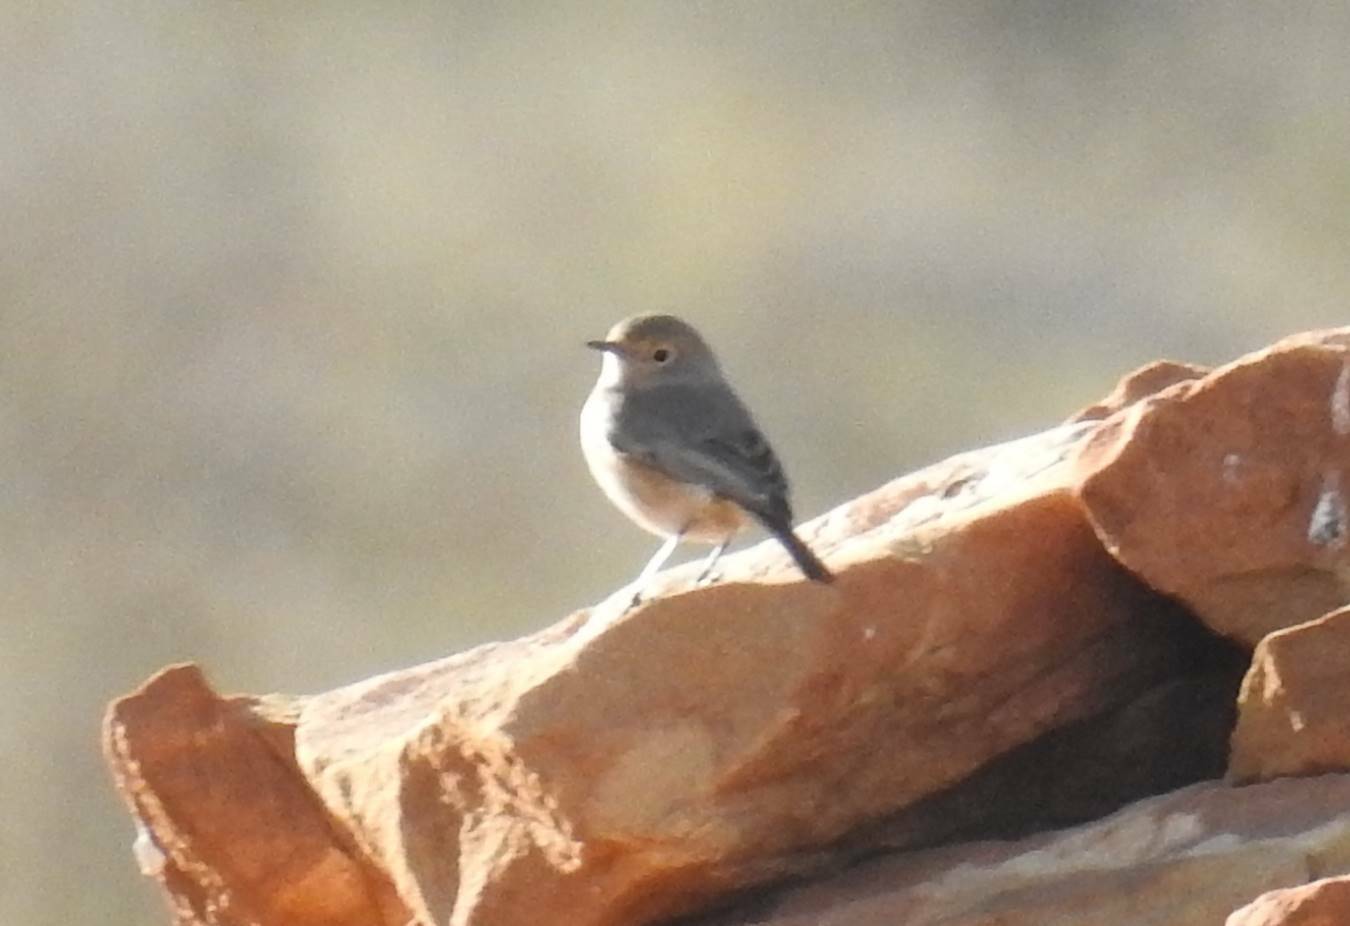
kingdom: Animalia
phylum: Chordata
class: Aves
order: Passeriformes
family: Muscicapidae
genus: Phoenicurus
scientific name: Phoenicurus moussieri
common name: Moussier's redstart
